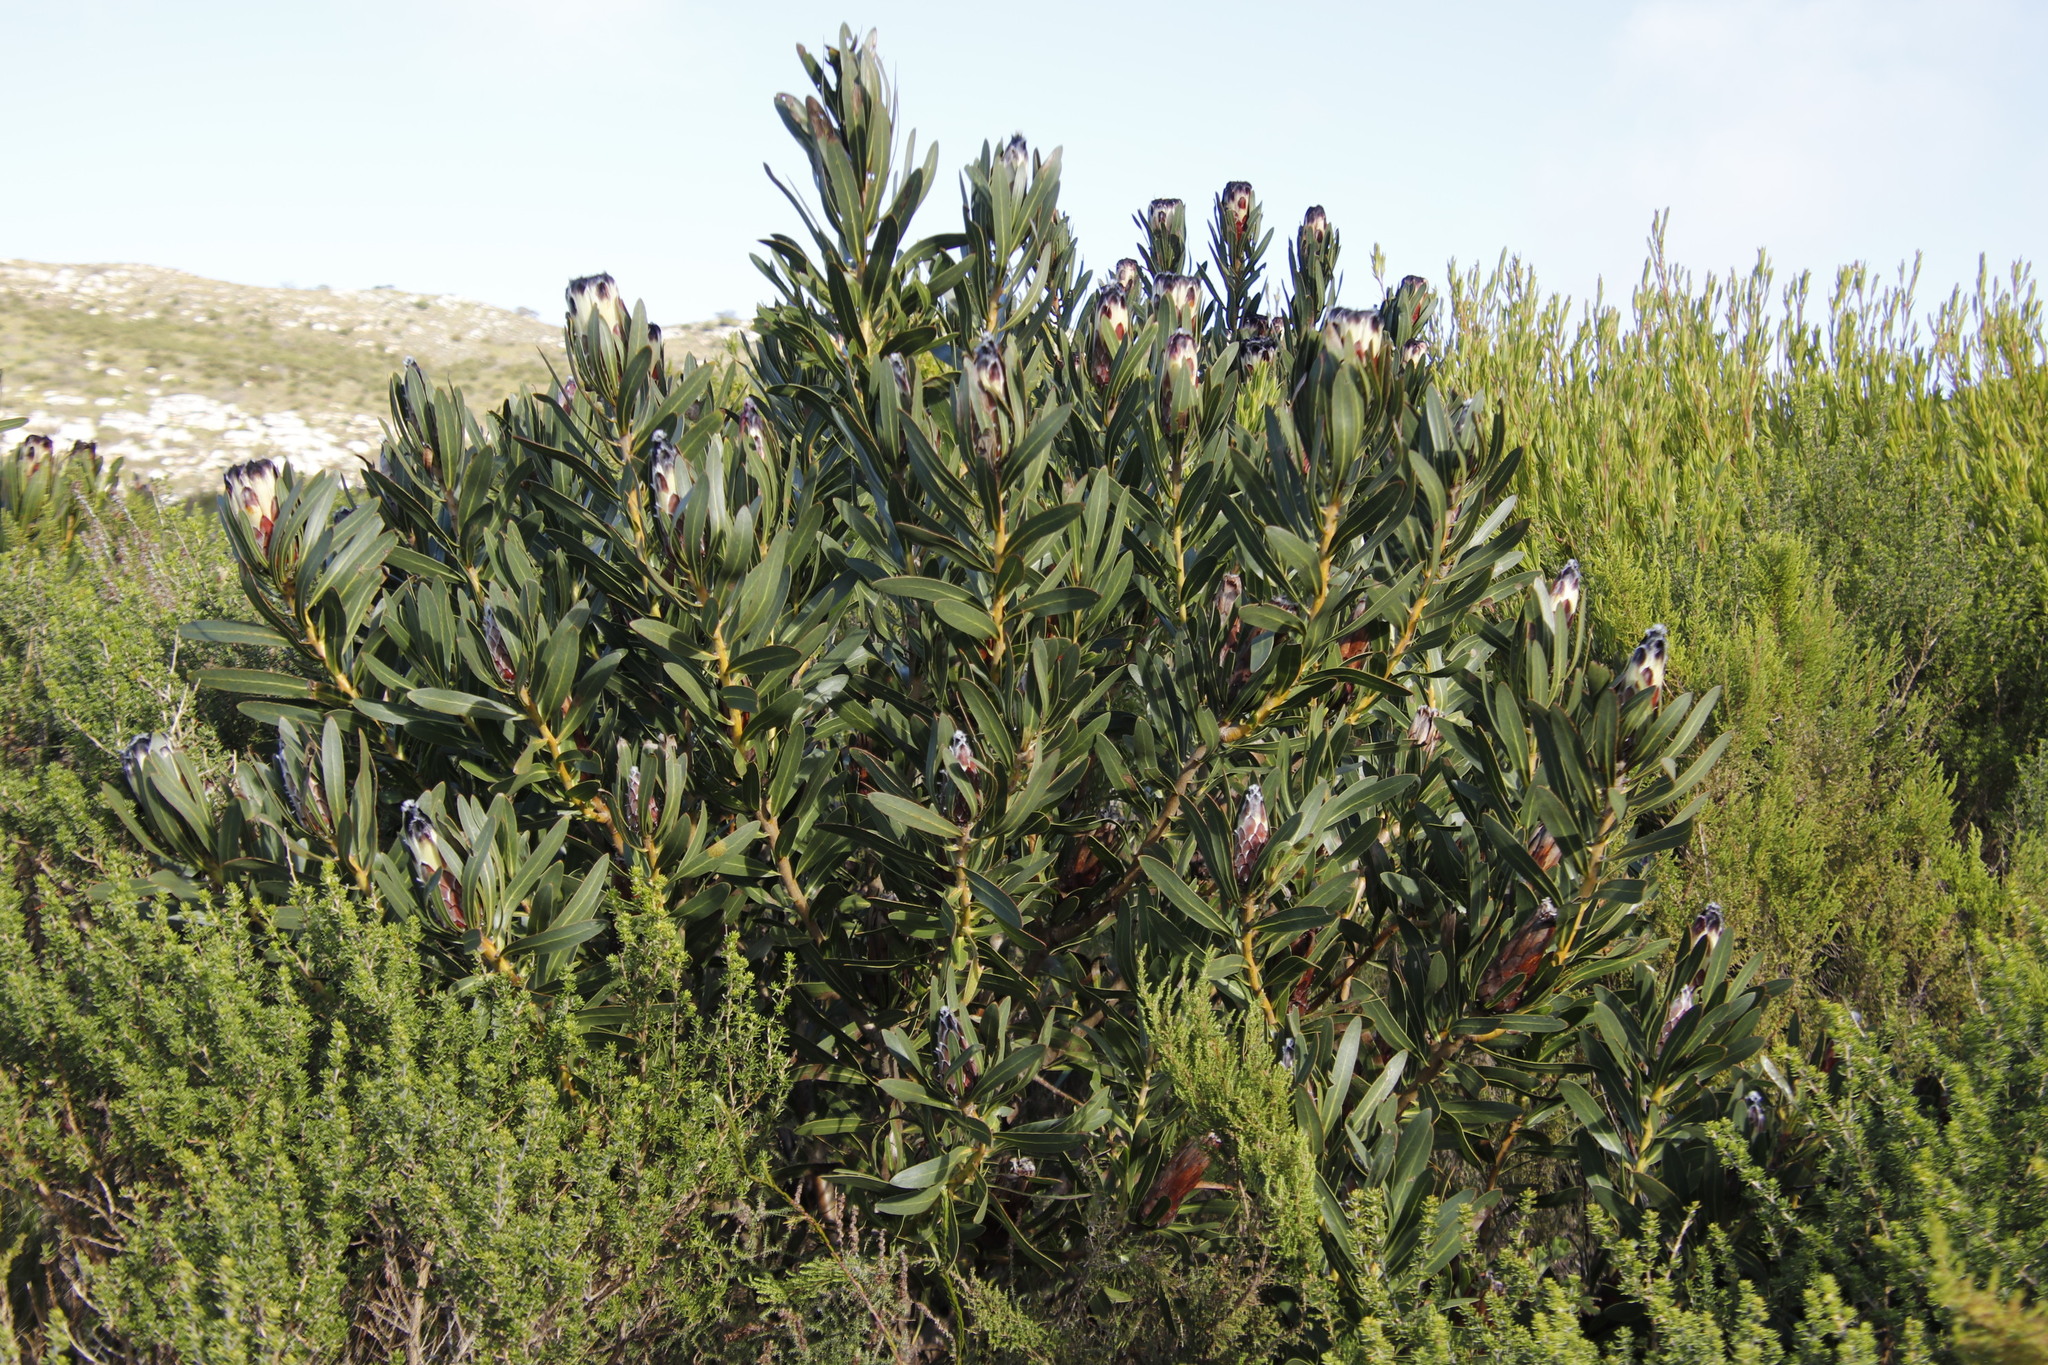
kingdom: Plantae
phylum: Tracheophyta
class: Magnoliopsida
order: Proteales
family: Proteaceae
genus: Protea
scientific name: Protea lepidocarpodendron
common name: Black-bearded protea
